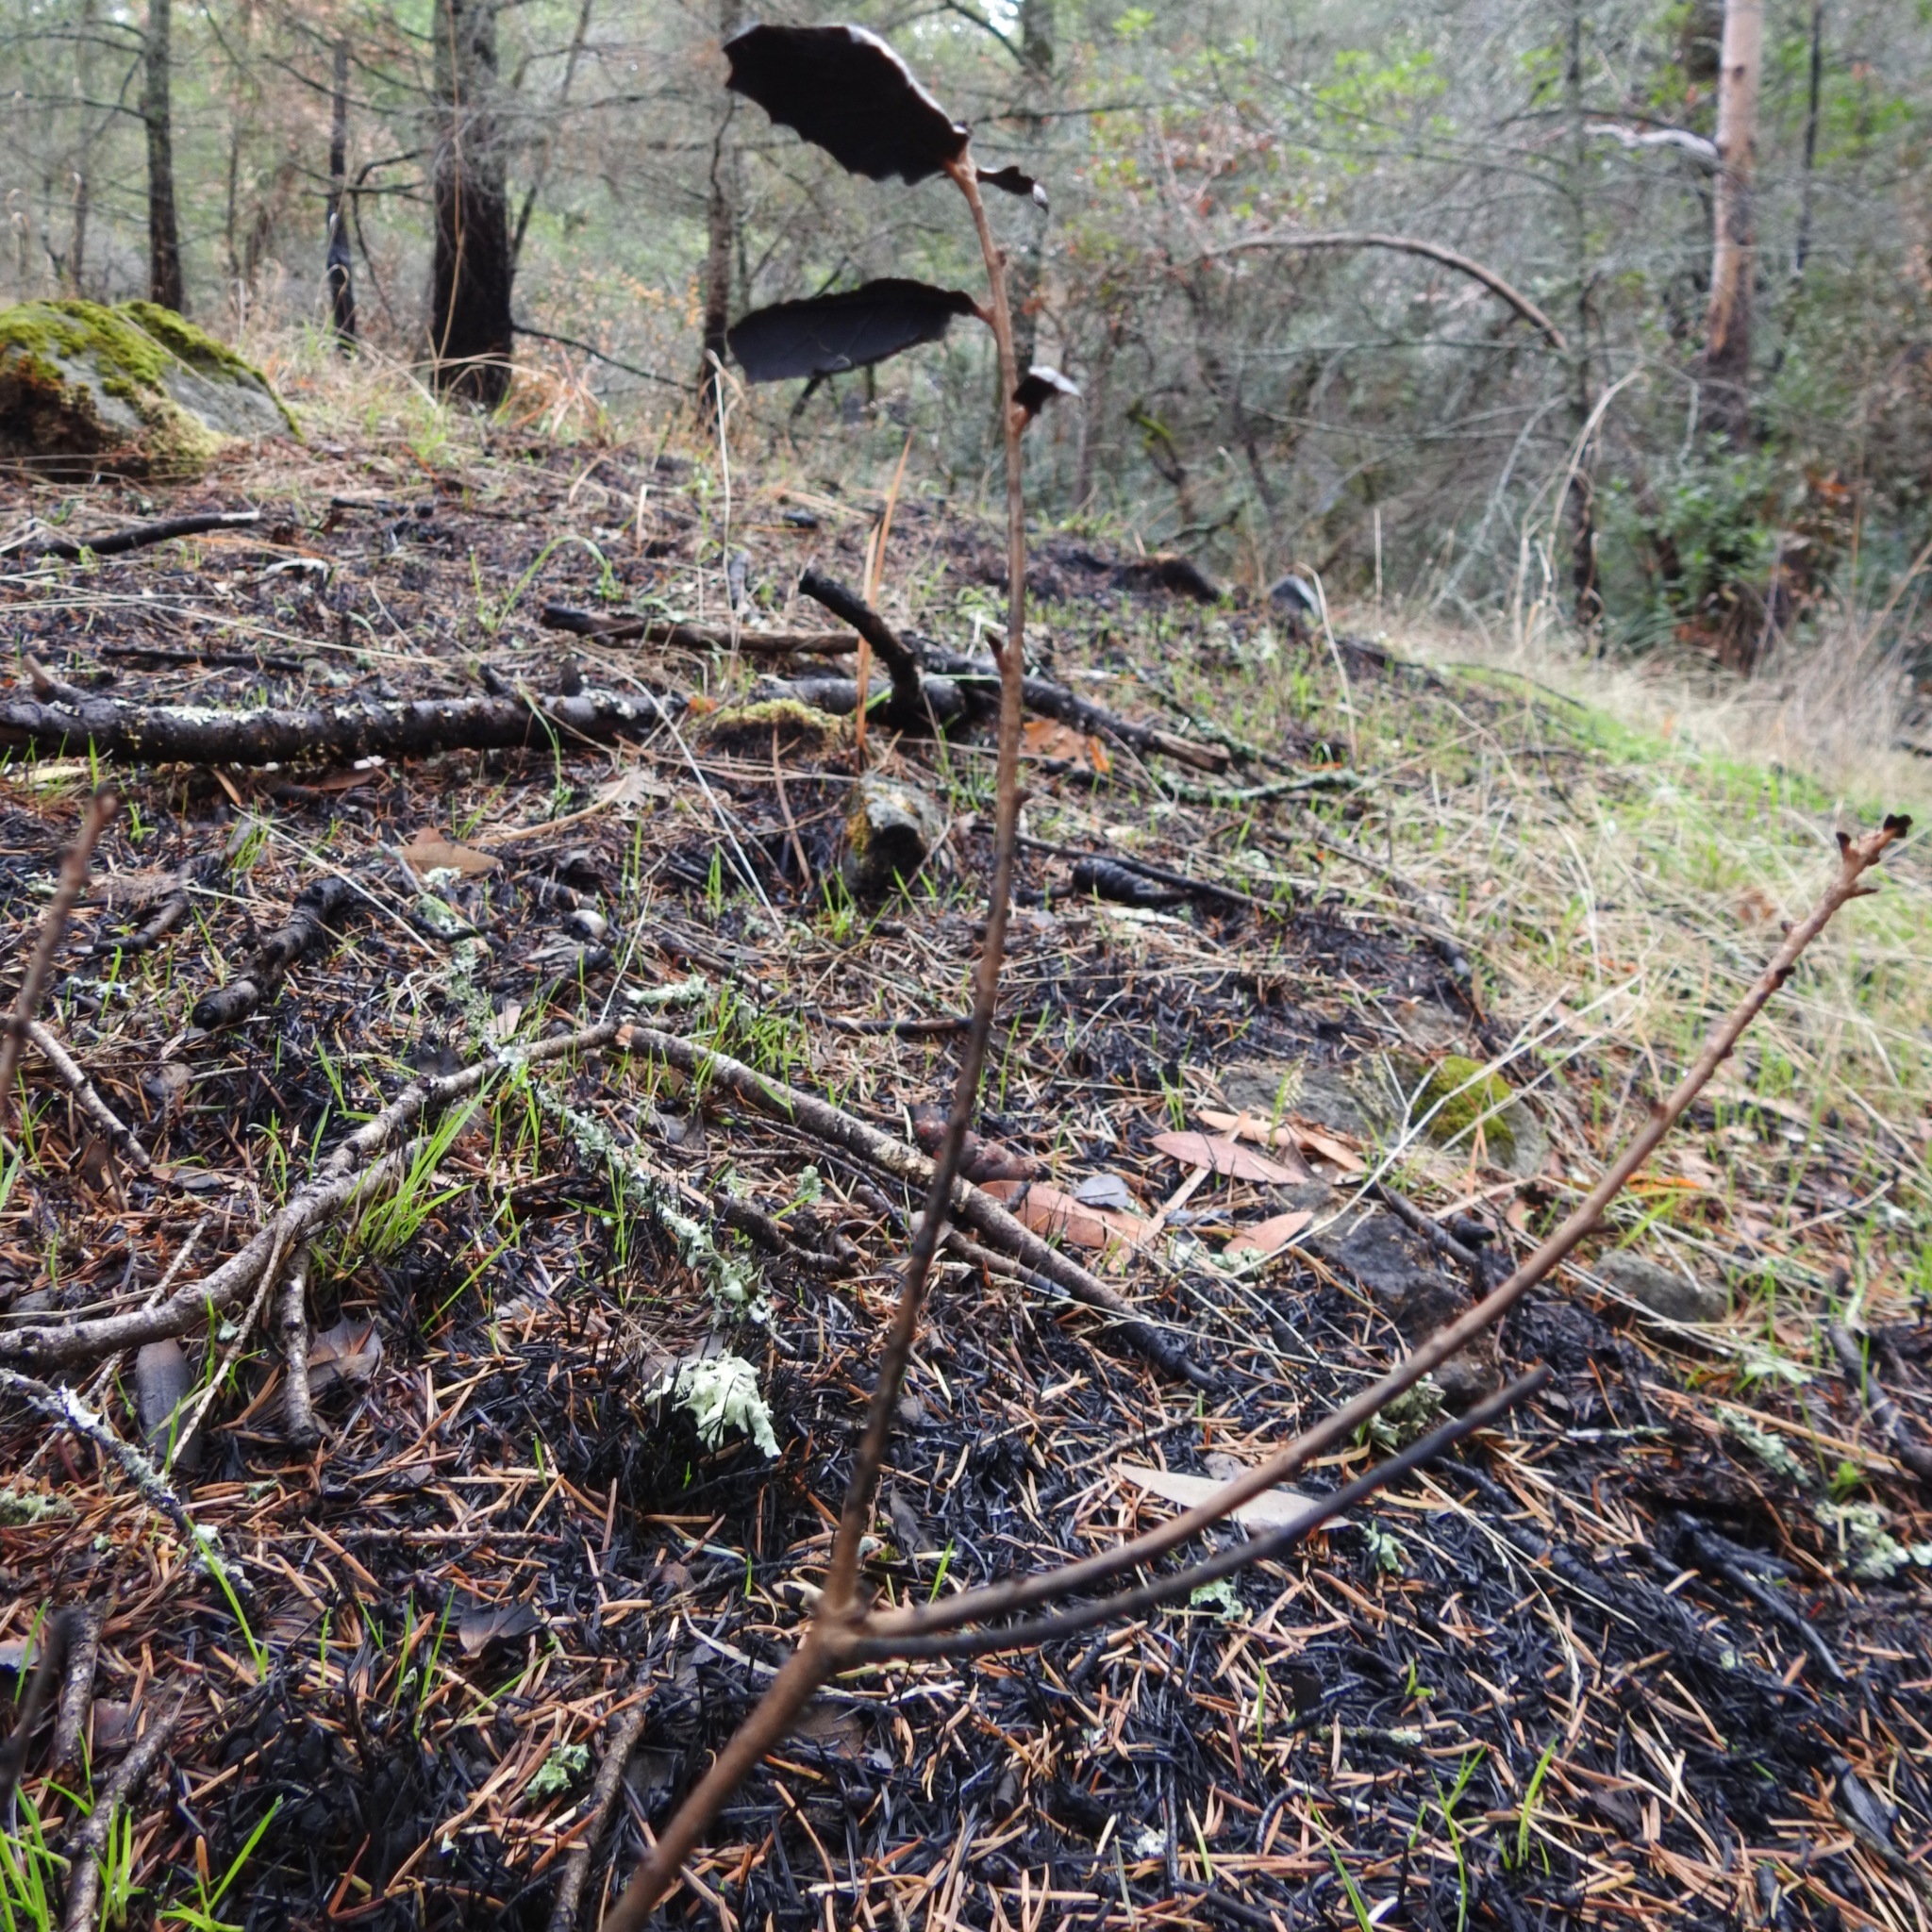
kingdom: Plantae
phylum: Tracheophyta
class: Magnoliopsida
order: Fagales
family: Fagaceae
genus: Quercus
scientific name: Quercus agrifolia
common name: California live oak
